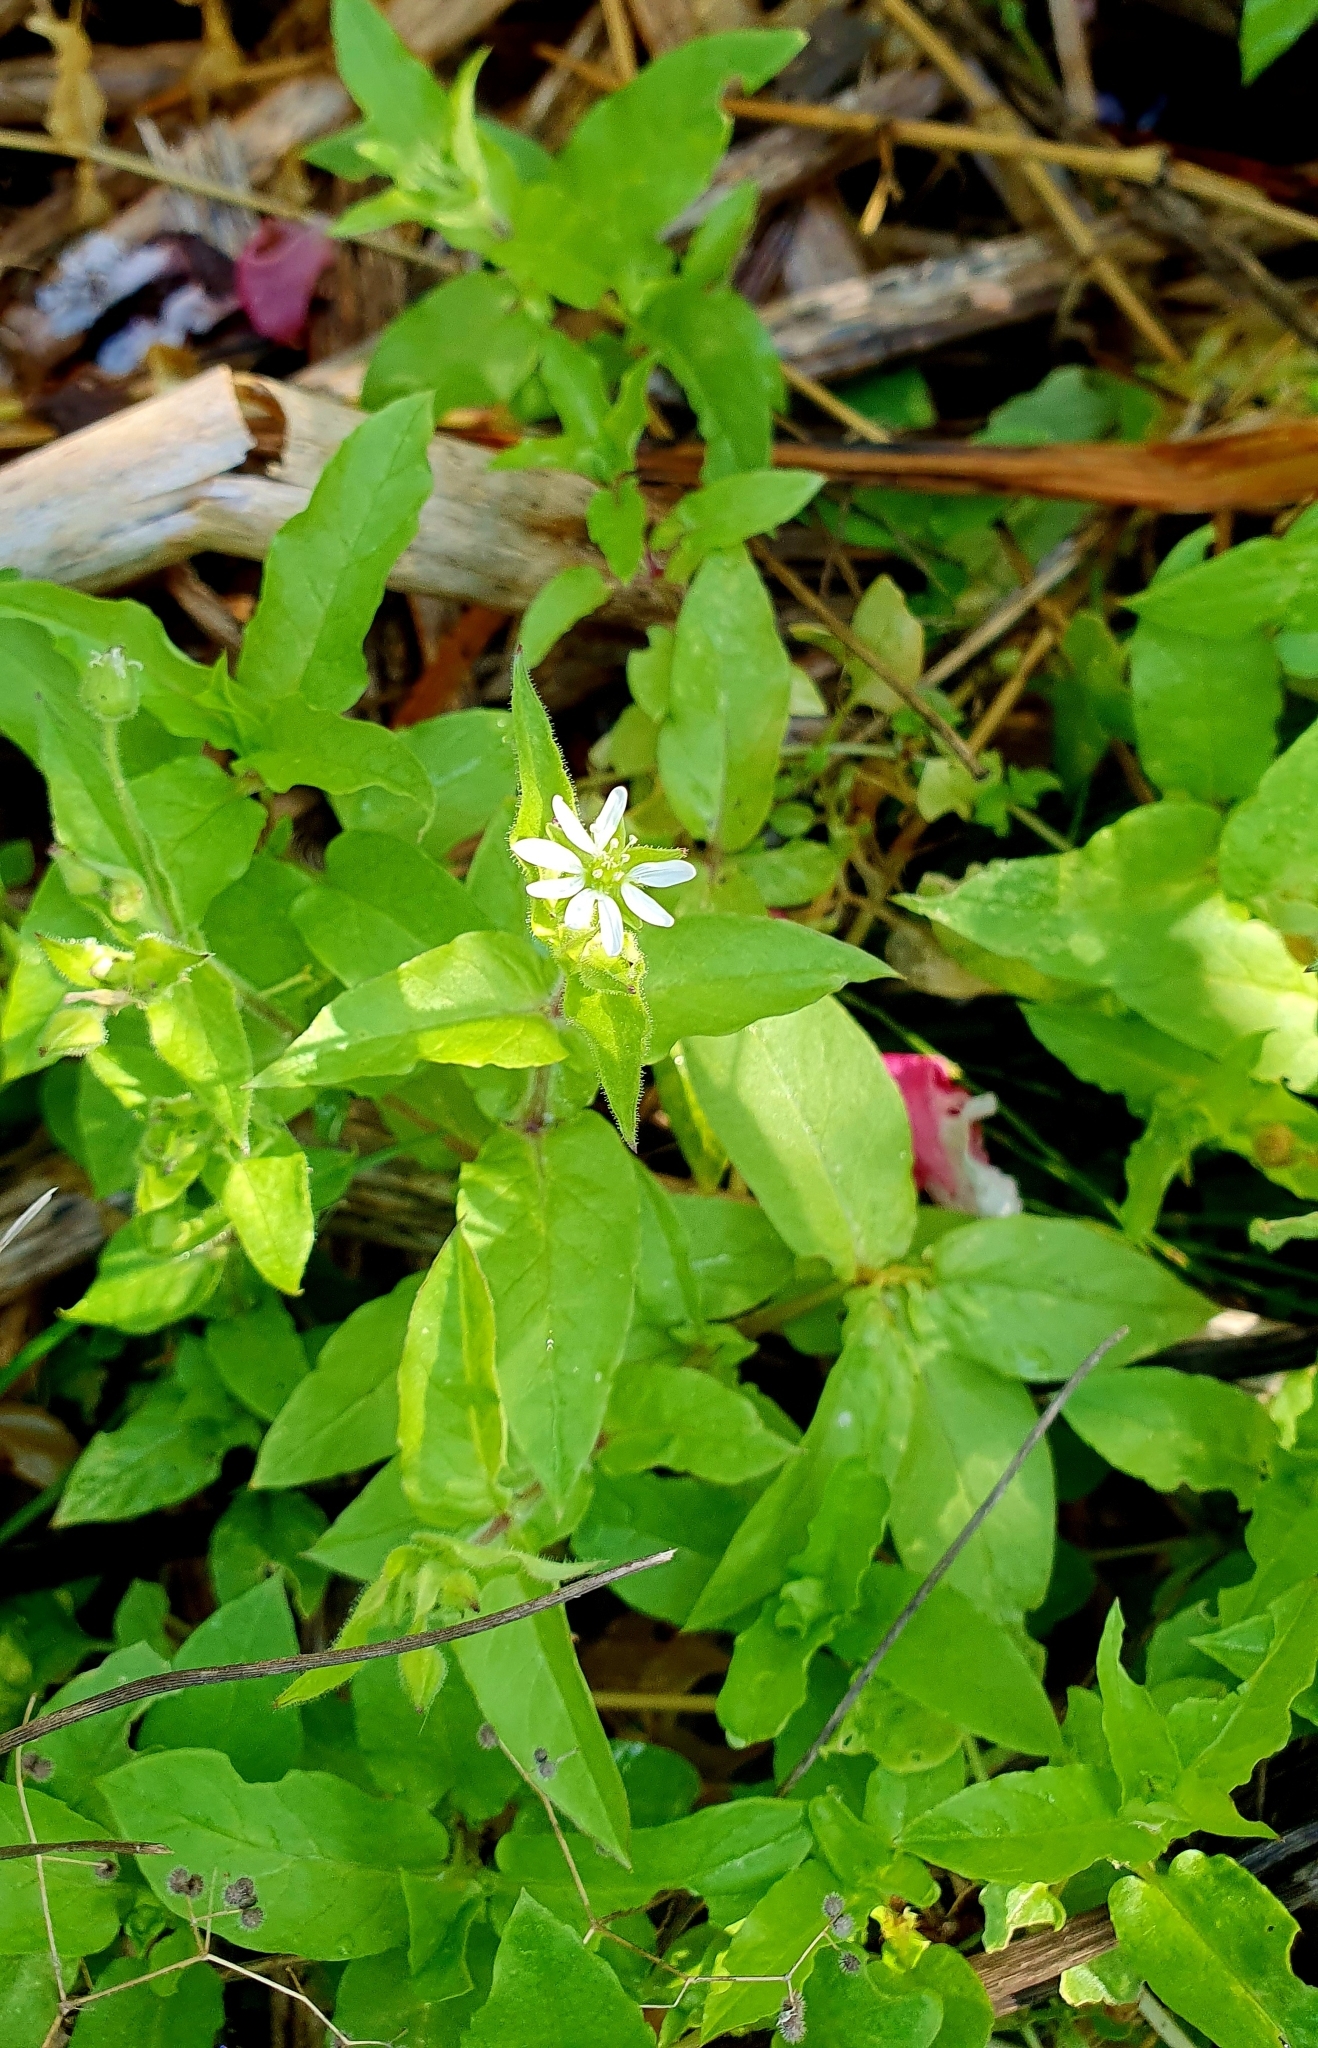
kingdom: Plantae
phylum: Tracheophyta
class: Magnoliopsida
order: Caryophyllales
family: Caryophyllaceae
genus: Stellaria
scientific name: Stellaria aquatica
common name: Water chickweed
